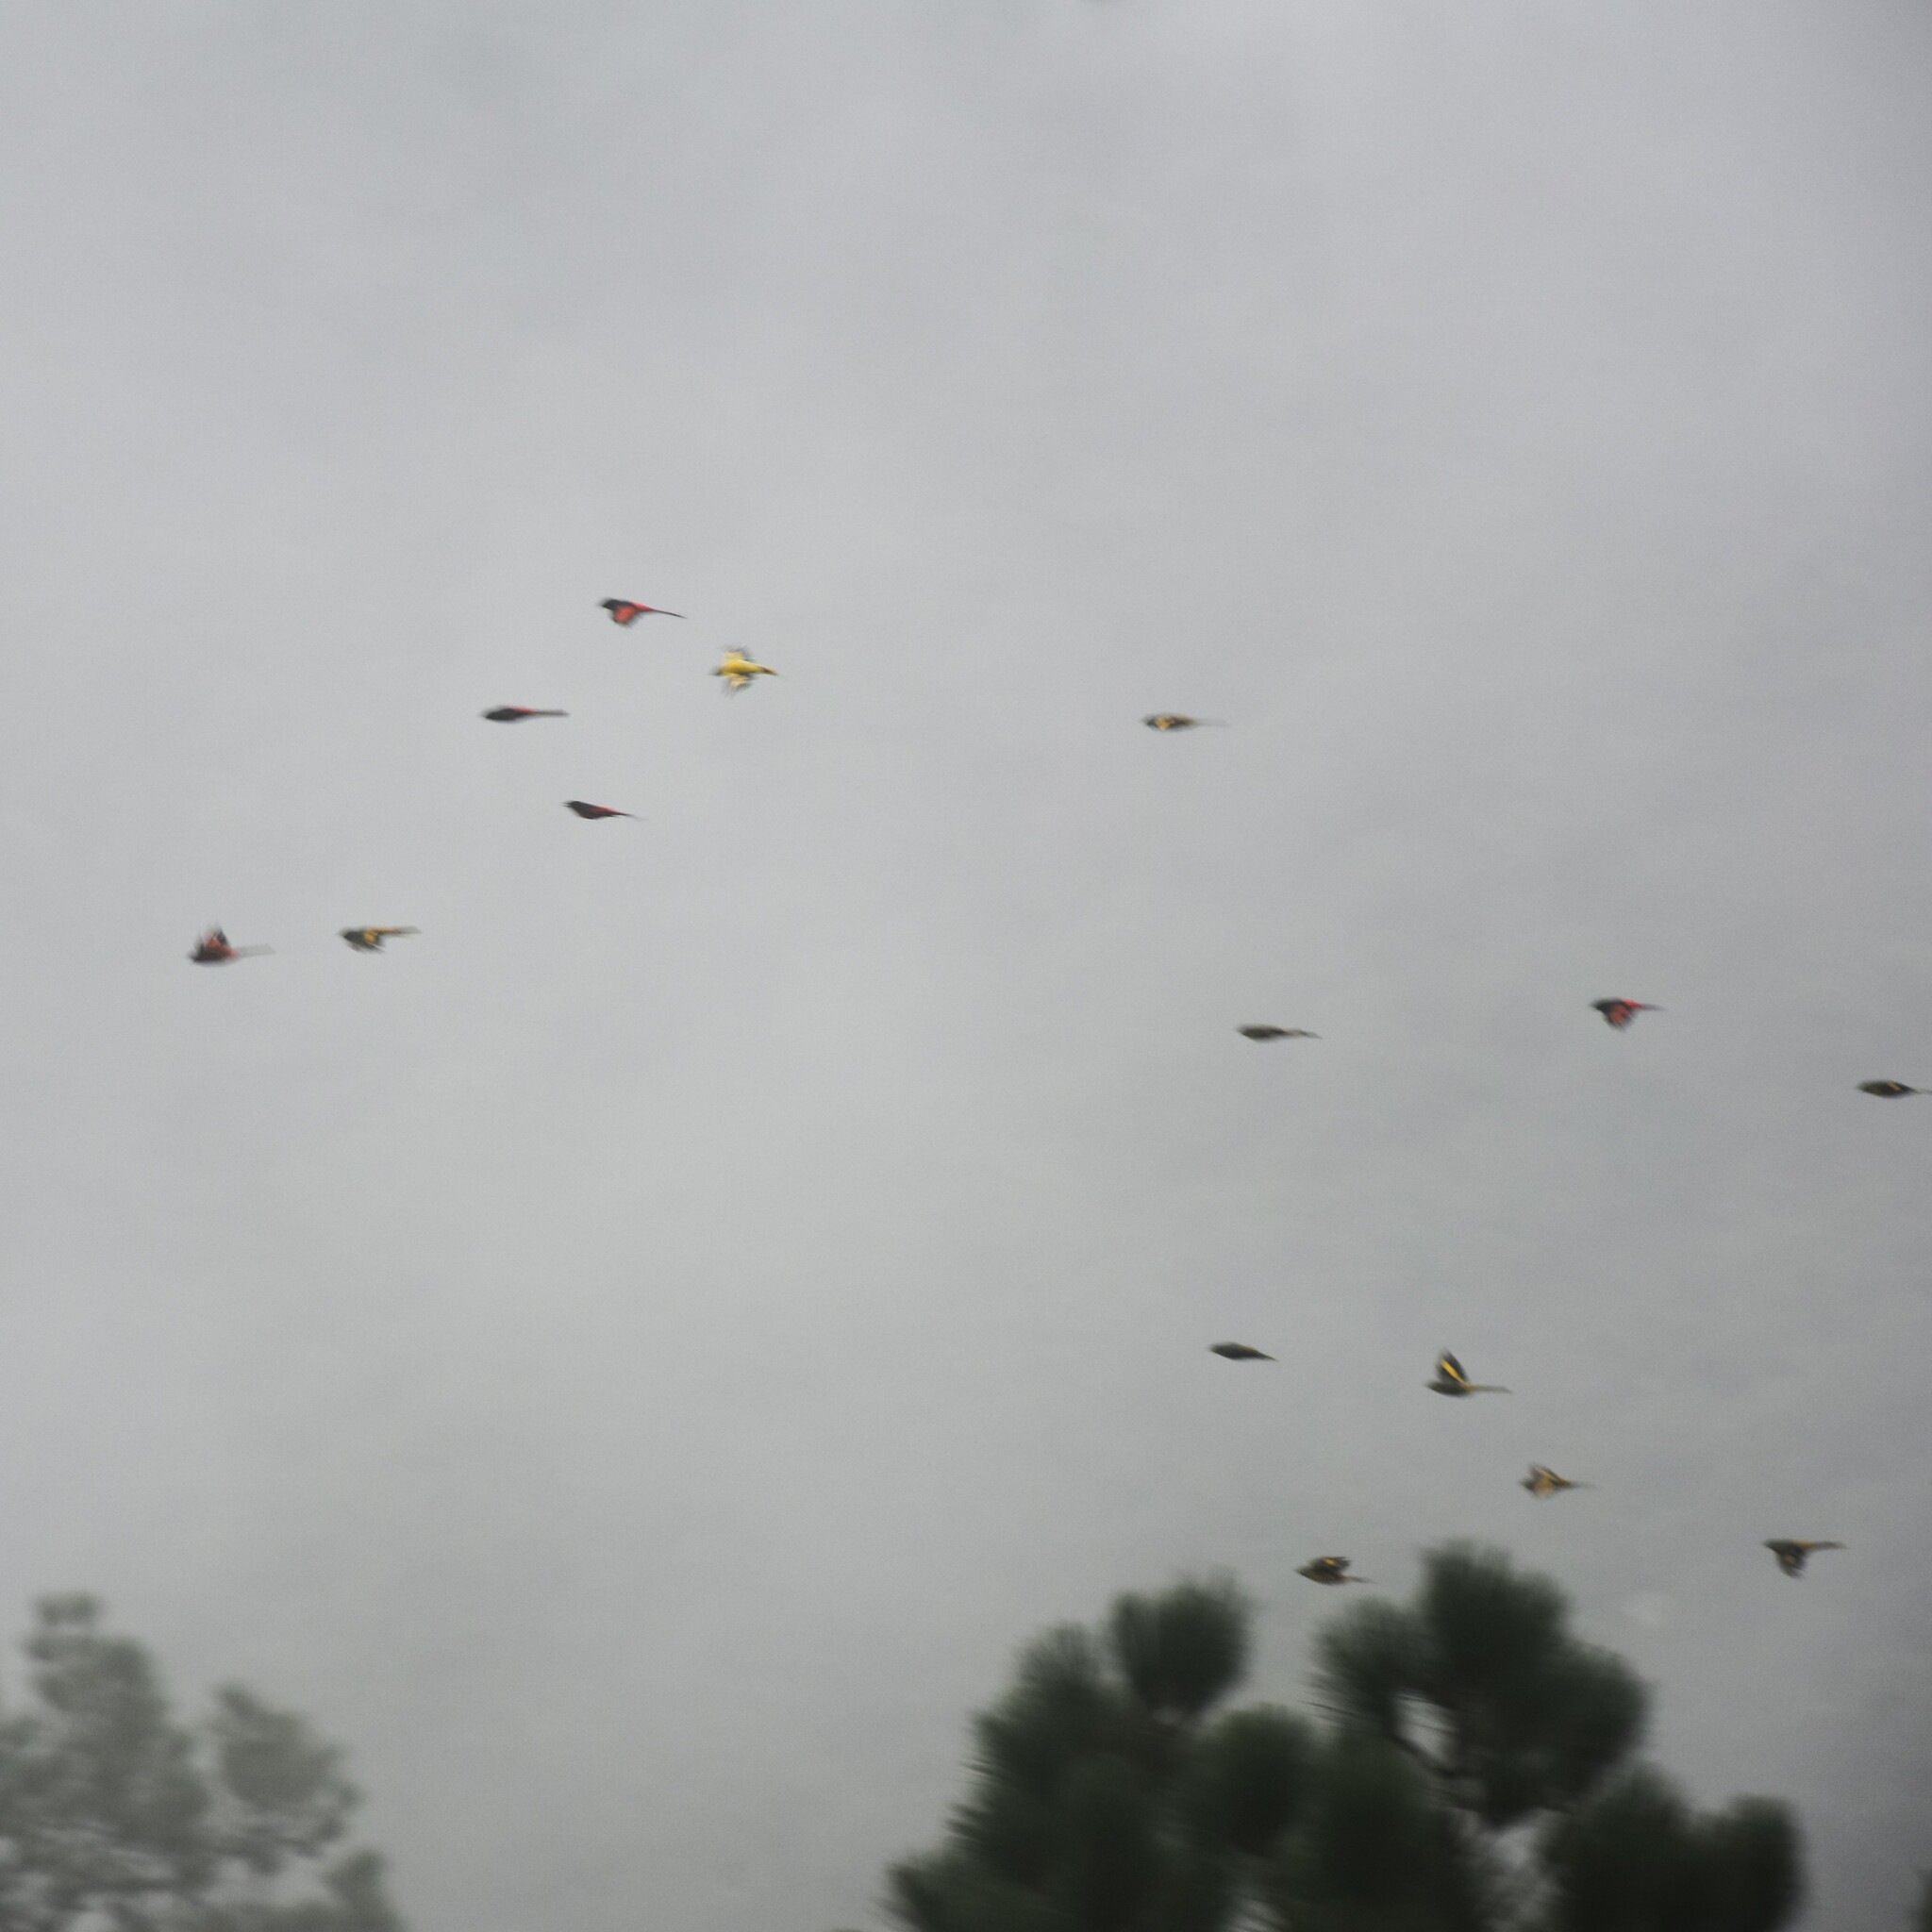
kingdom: Animalia
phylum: Chordata
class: Aves
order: Passeriformes
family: Campephagidae
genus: Pericrocotus
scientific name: Pericrocotus ethologus
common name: Long-tailed minivet
